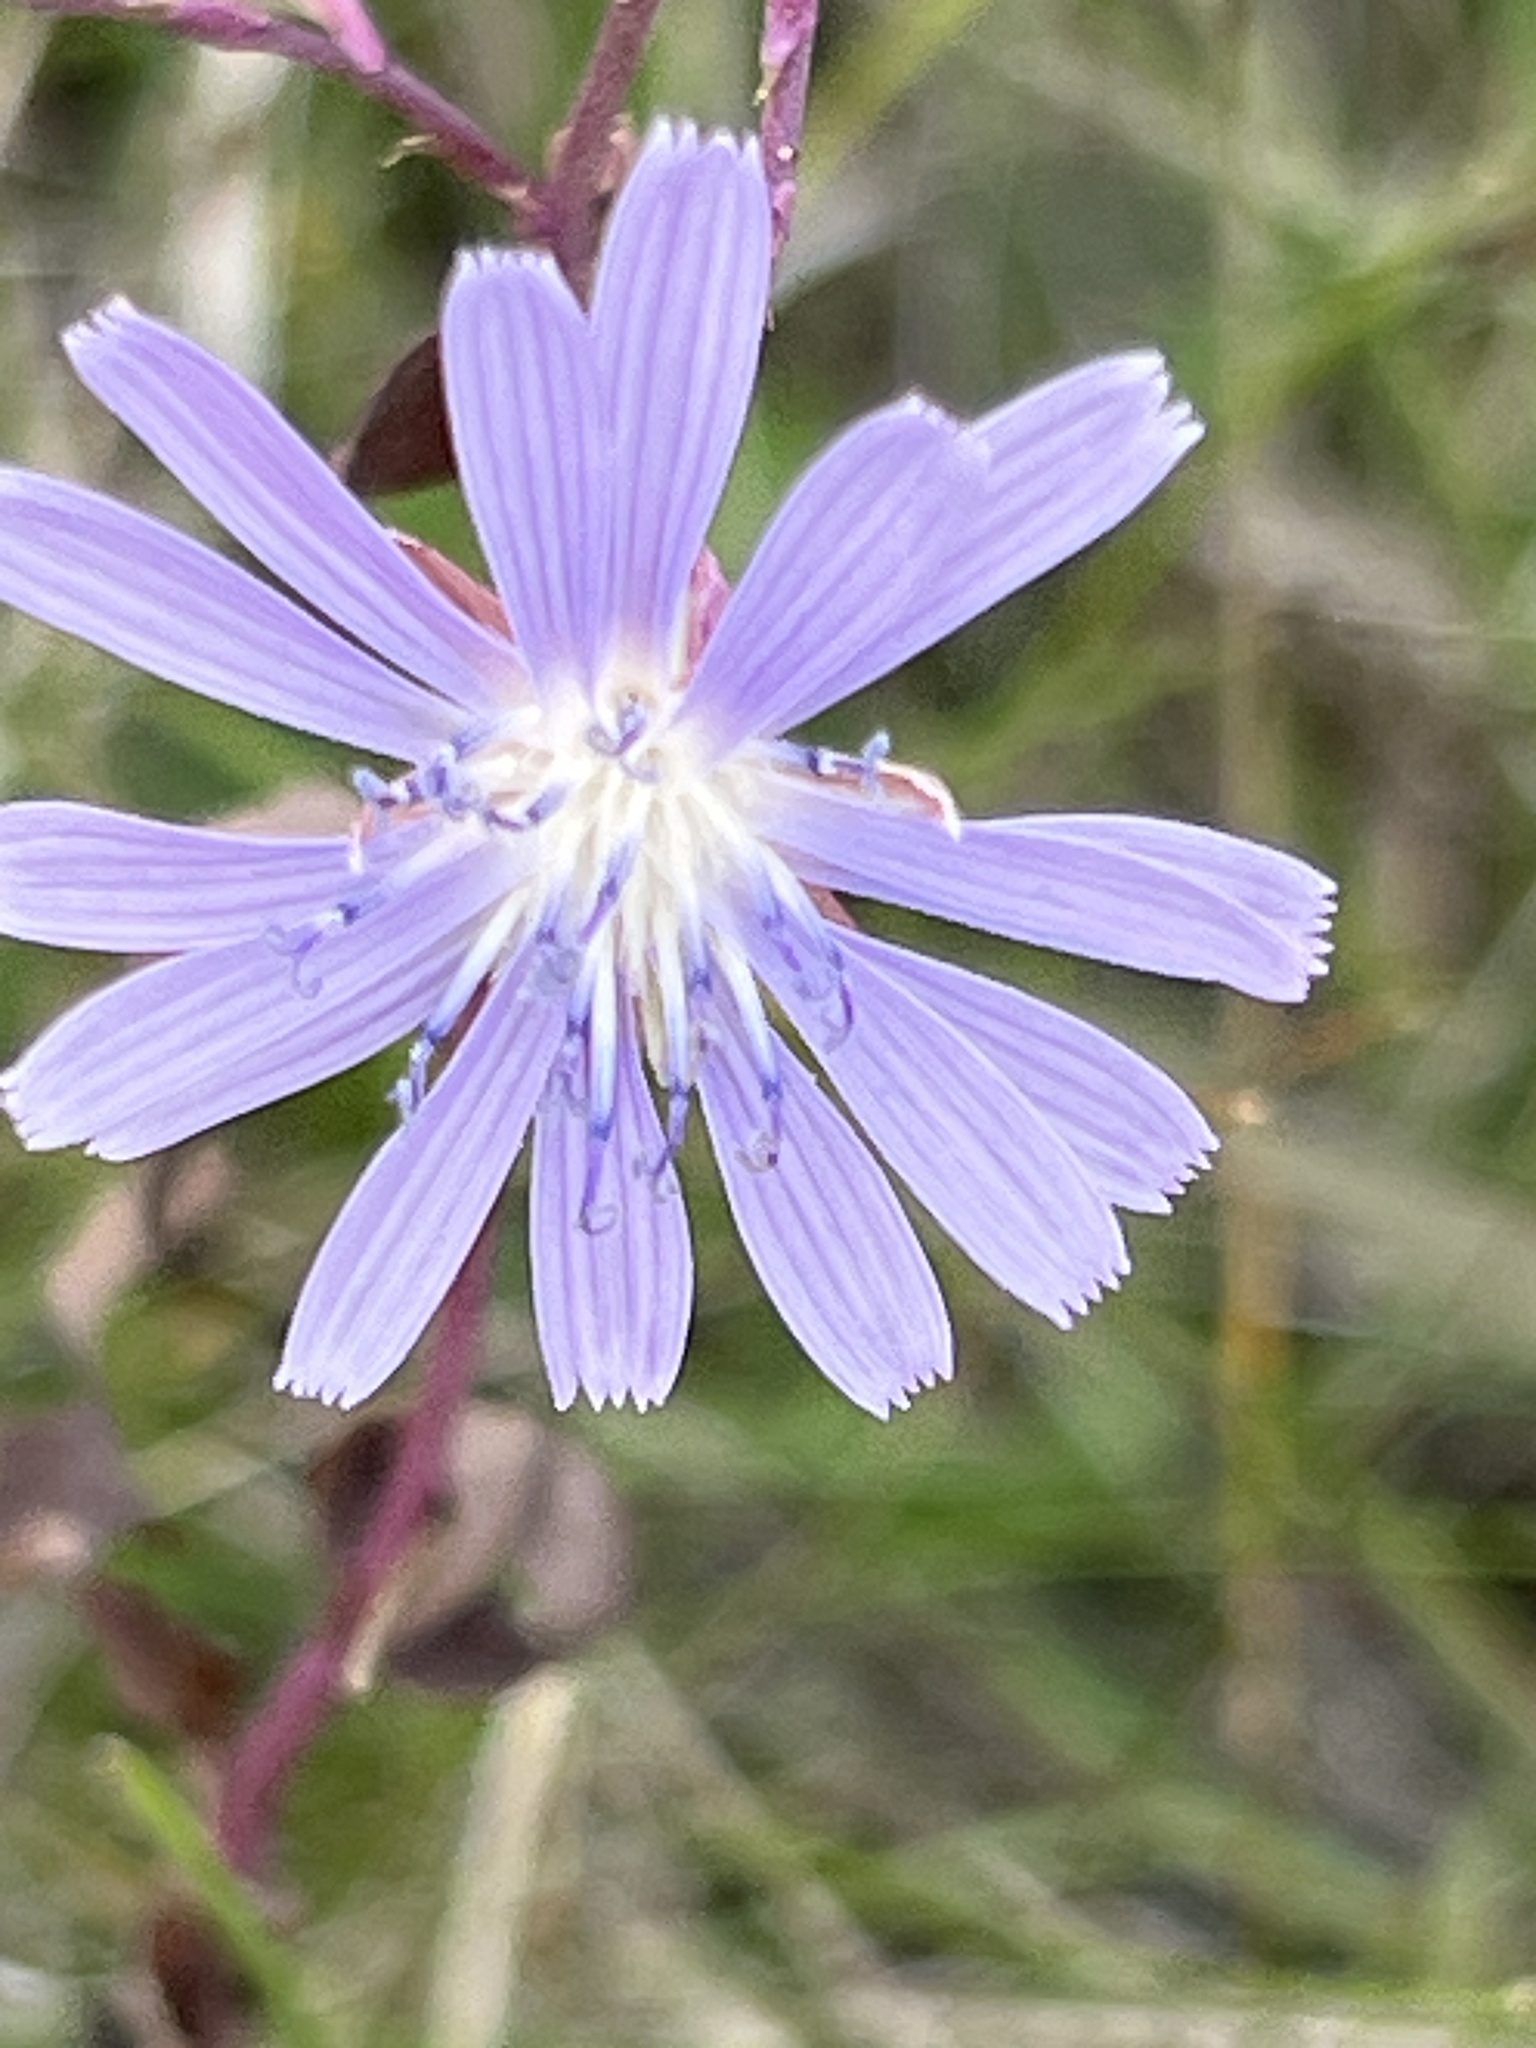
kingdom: Plantae
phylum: Tracheophyta
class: Magnoliopsida
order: Asterales
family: Asteraceae
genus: Lactuca
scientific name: Lactuca pulchella
